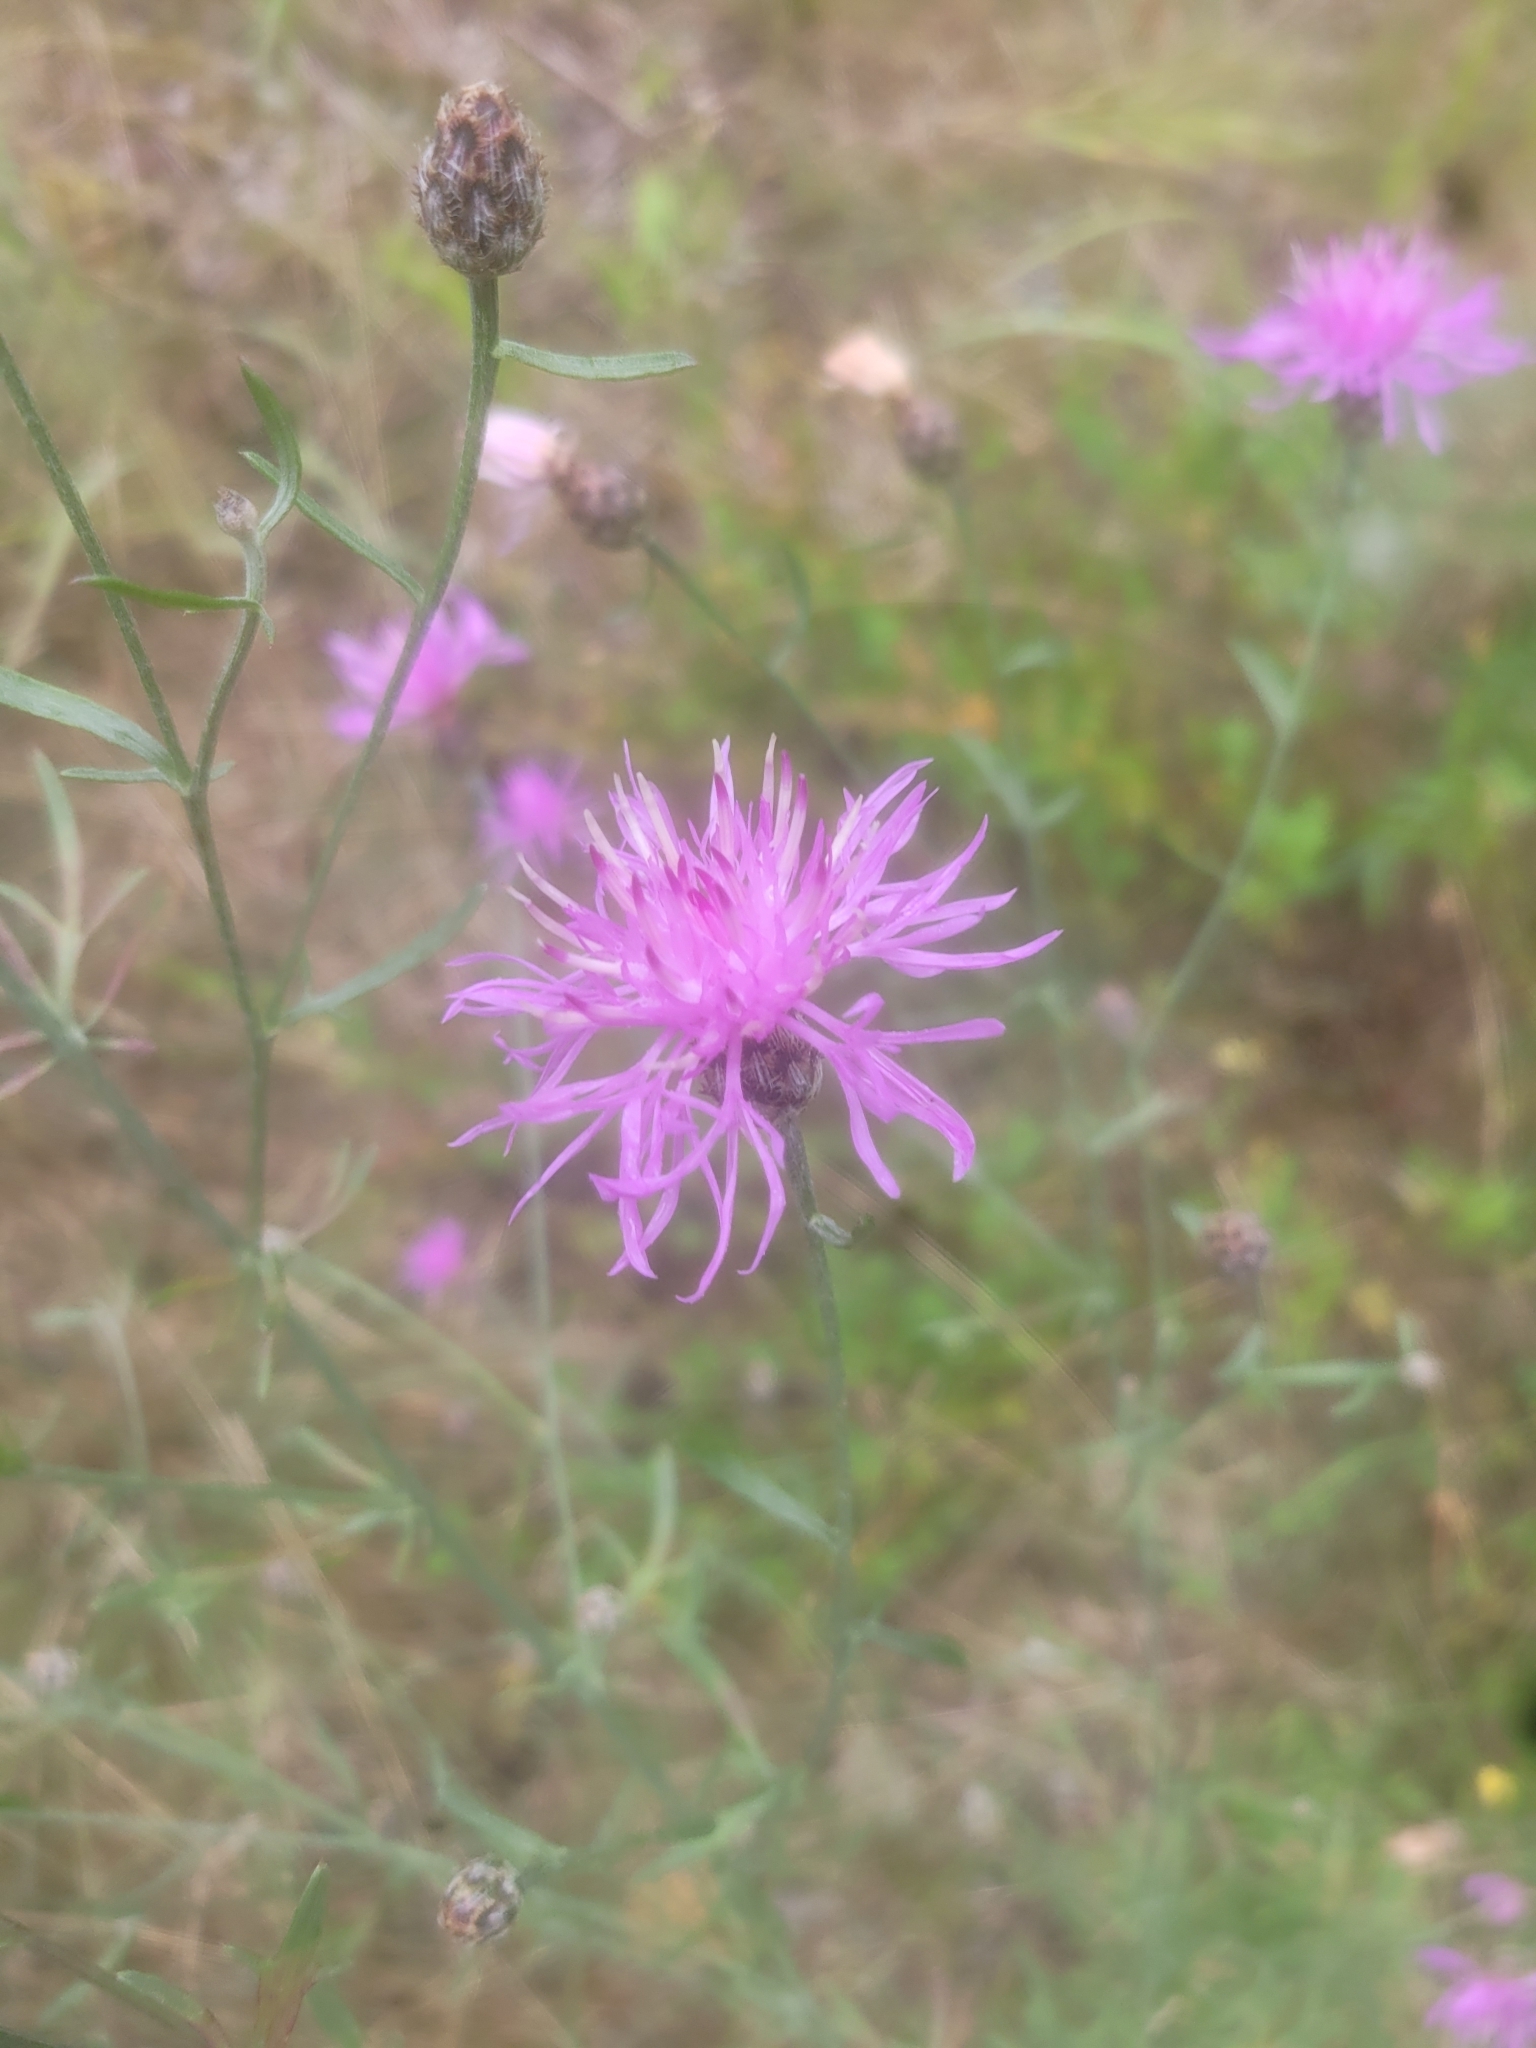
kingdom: Plantae
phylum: Tracheophyta
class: Magnoliopsida
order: Asterales
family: Asteraceae
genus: Centaurea
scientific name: Centaurea stoebe
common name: Spotted knapweed
